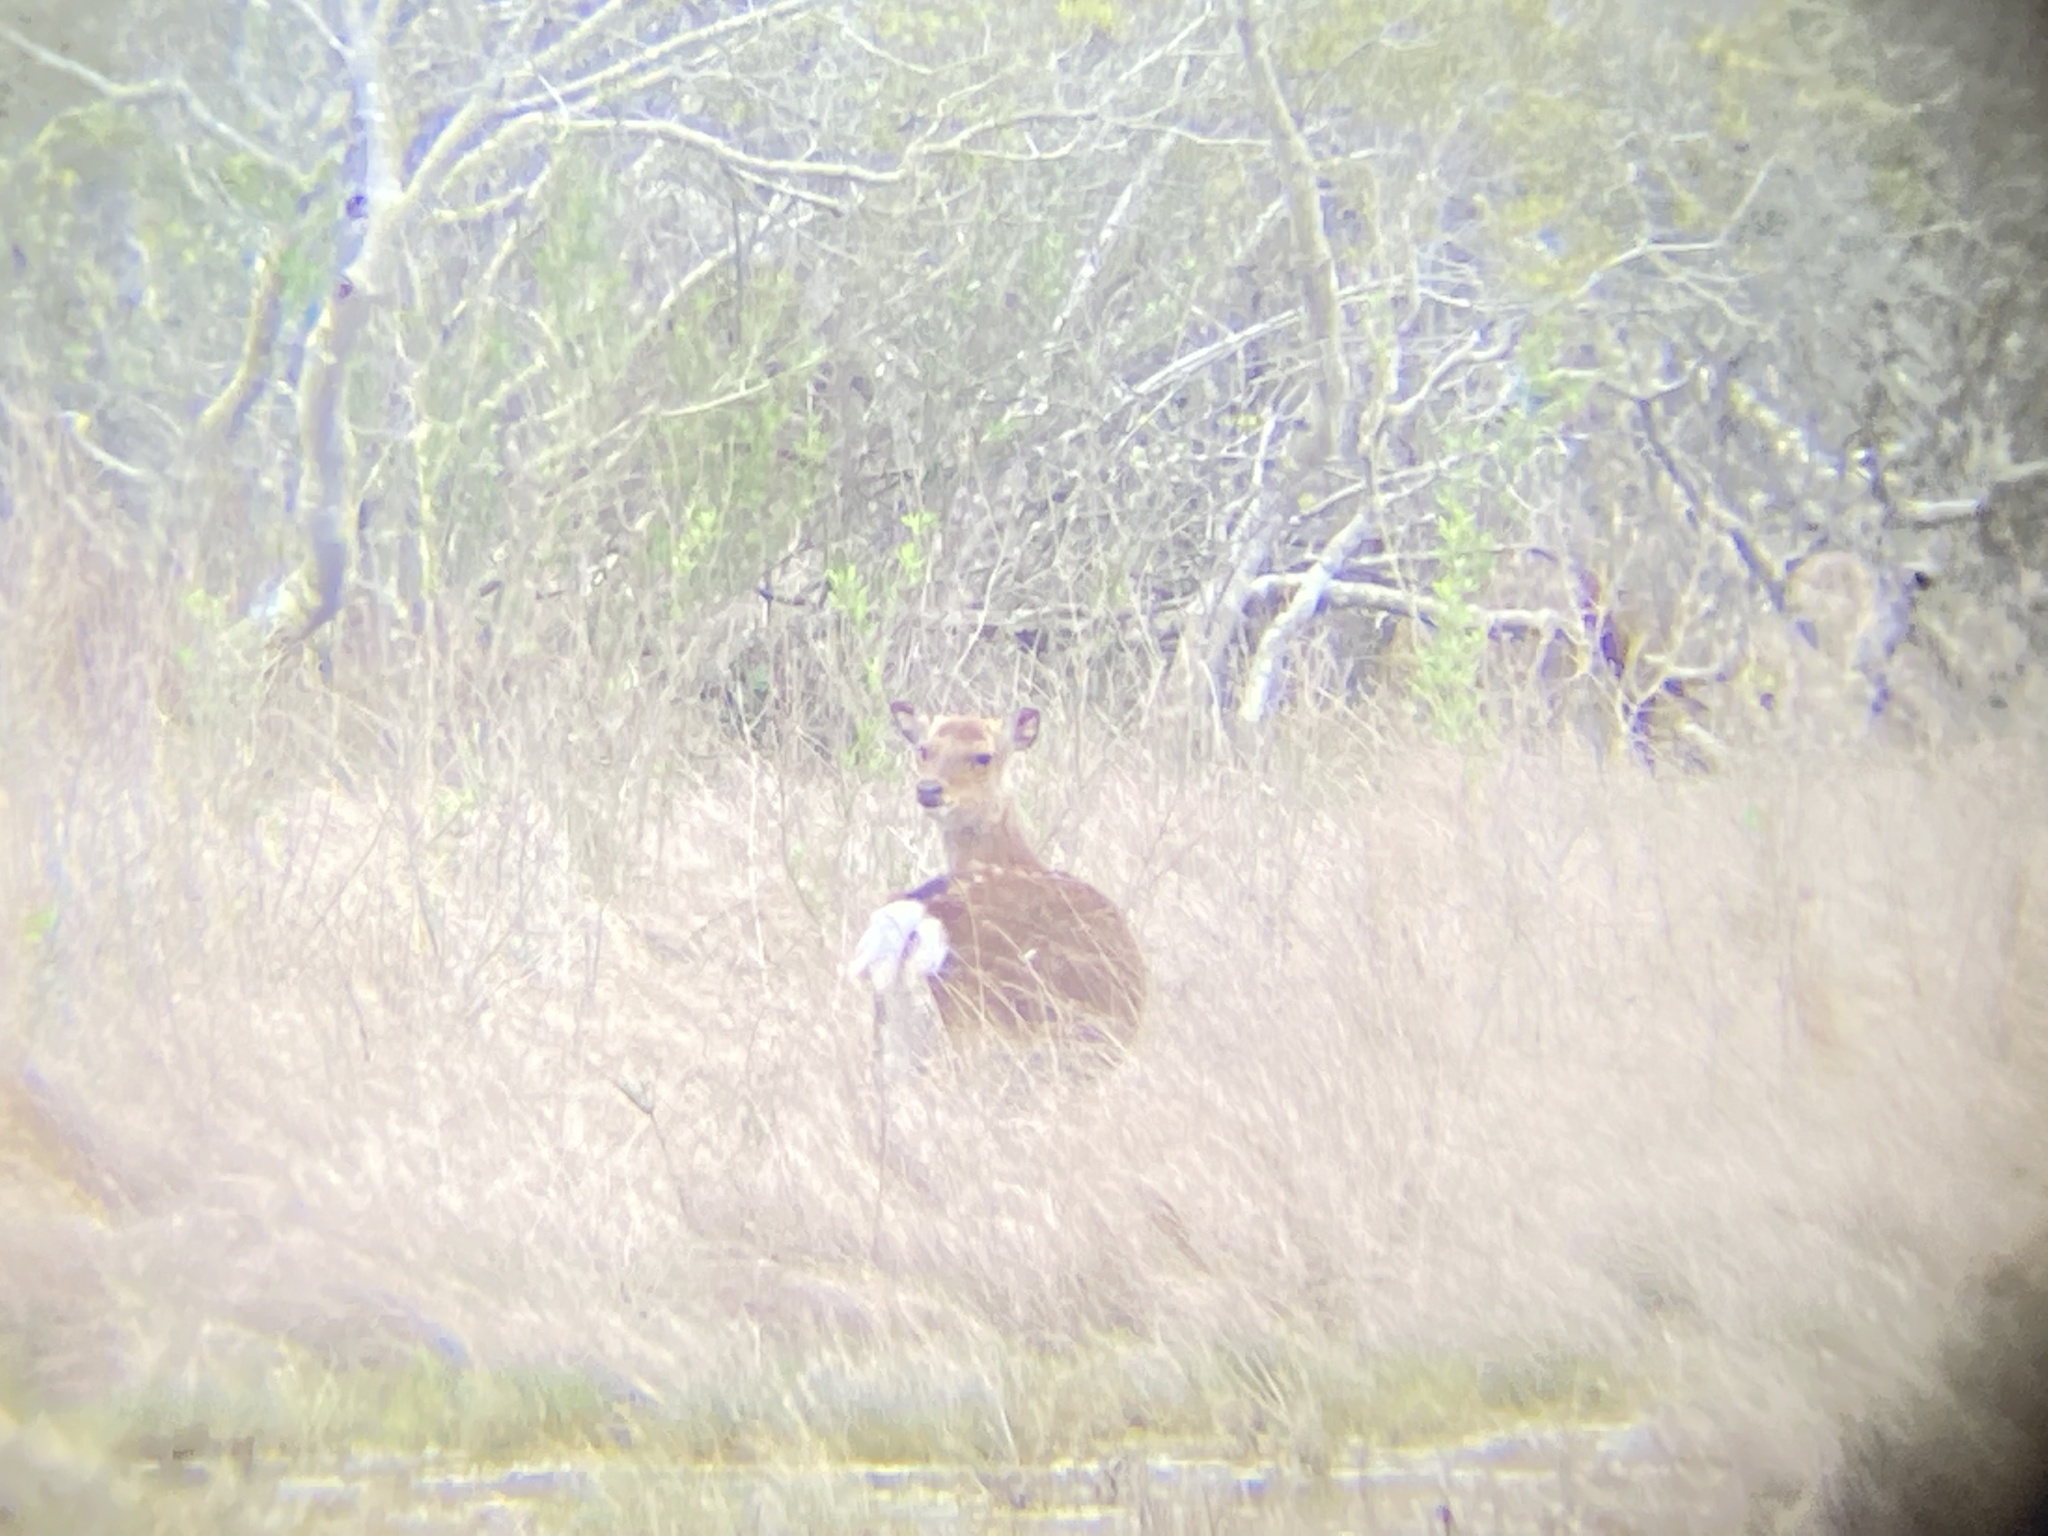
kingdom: Animalia
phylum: Chordata
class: Mammalia
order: Artiodactyla
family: Cervidae
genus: Cervus
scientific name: Cervus nippon
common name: Sika deer
